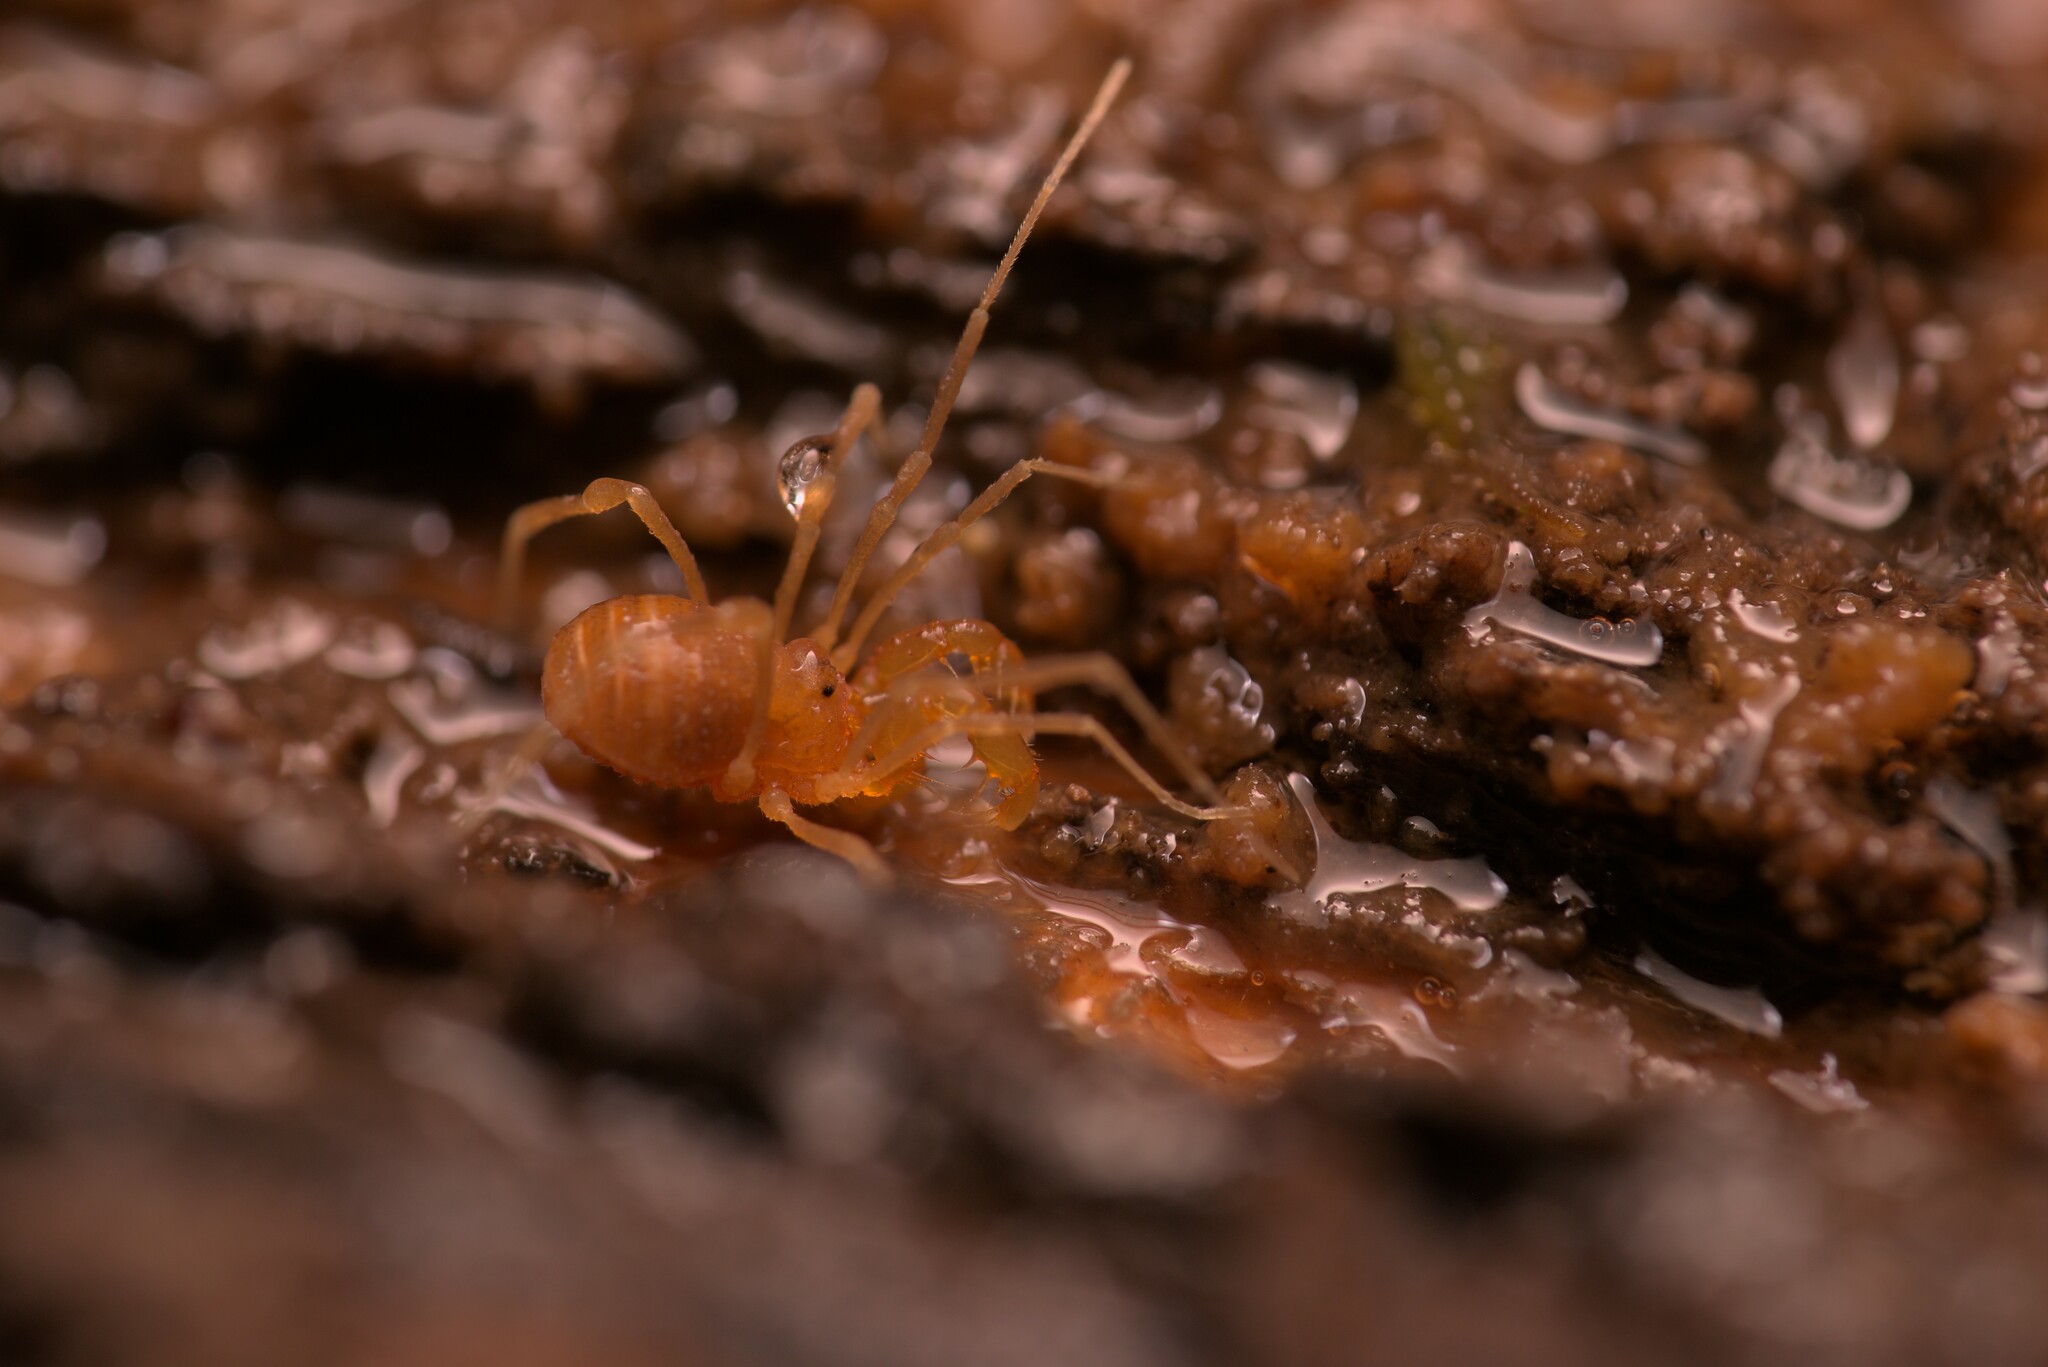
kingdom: Animalia
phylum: Arthropoda
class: Arachnida
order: Opiliones
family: Cladonychiidae
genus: Holoscotolemon
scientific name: Holoscotolemon querilhaci
